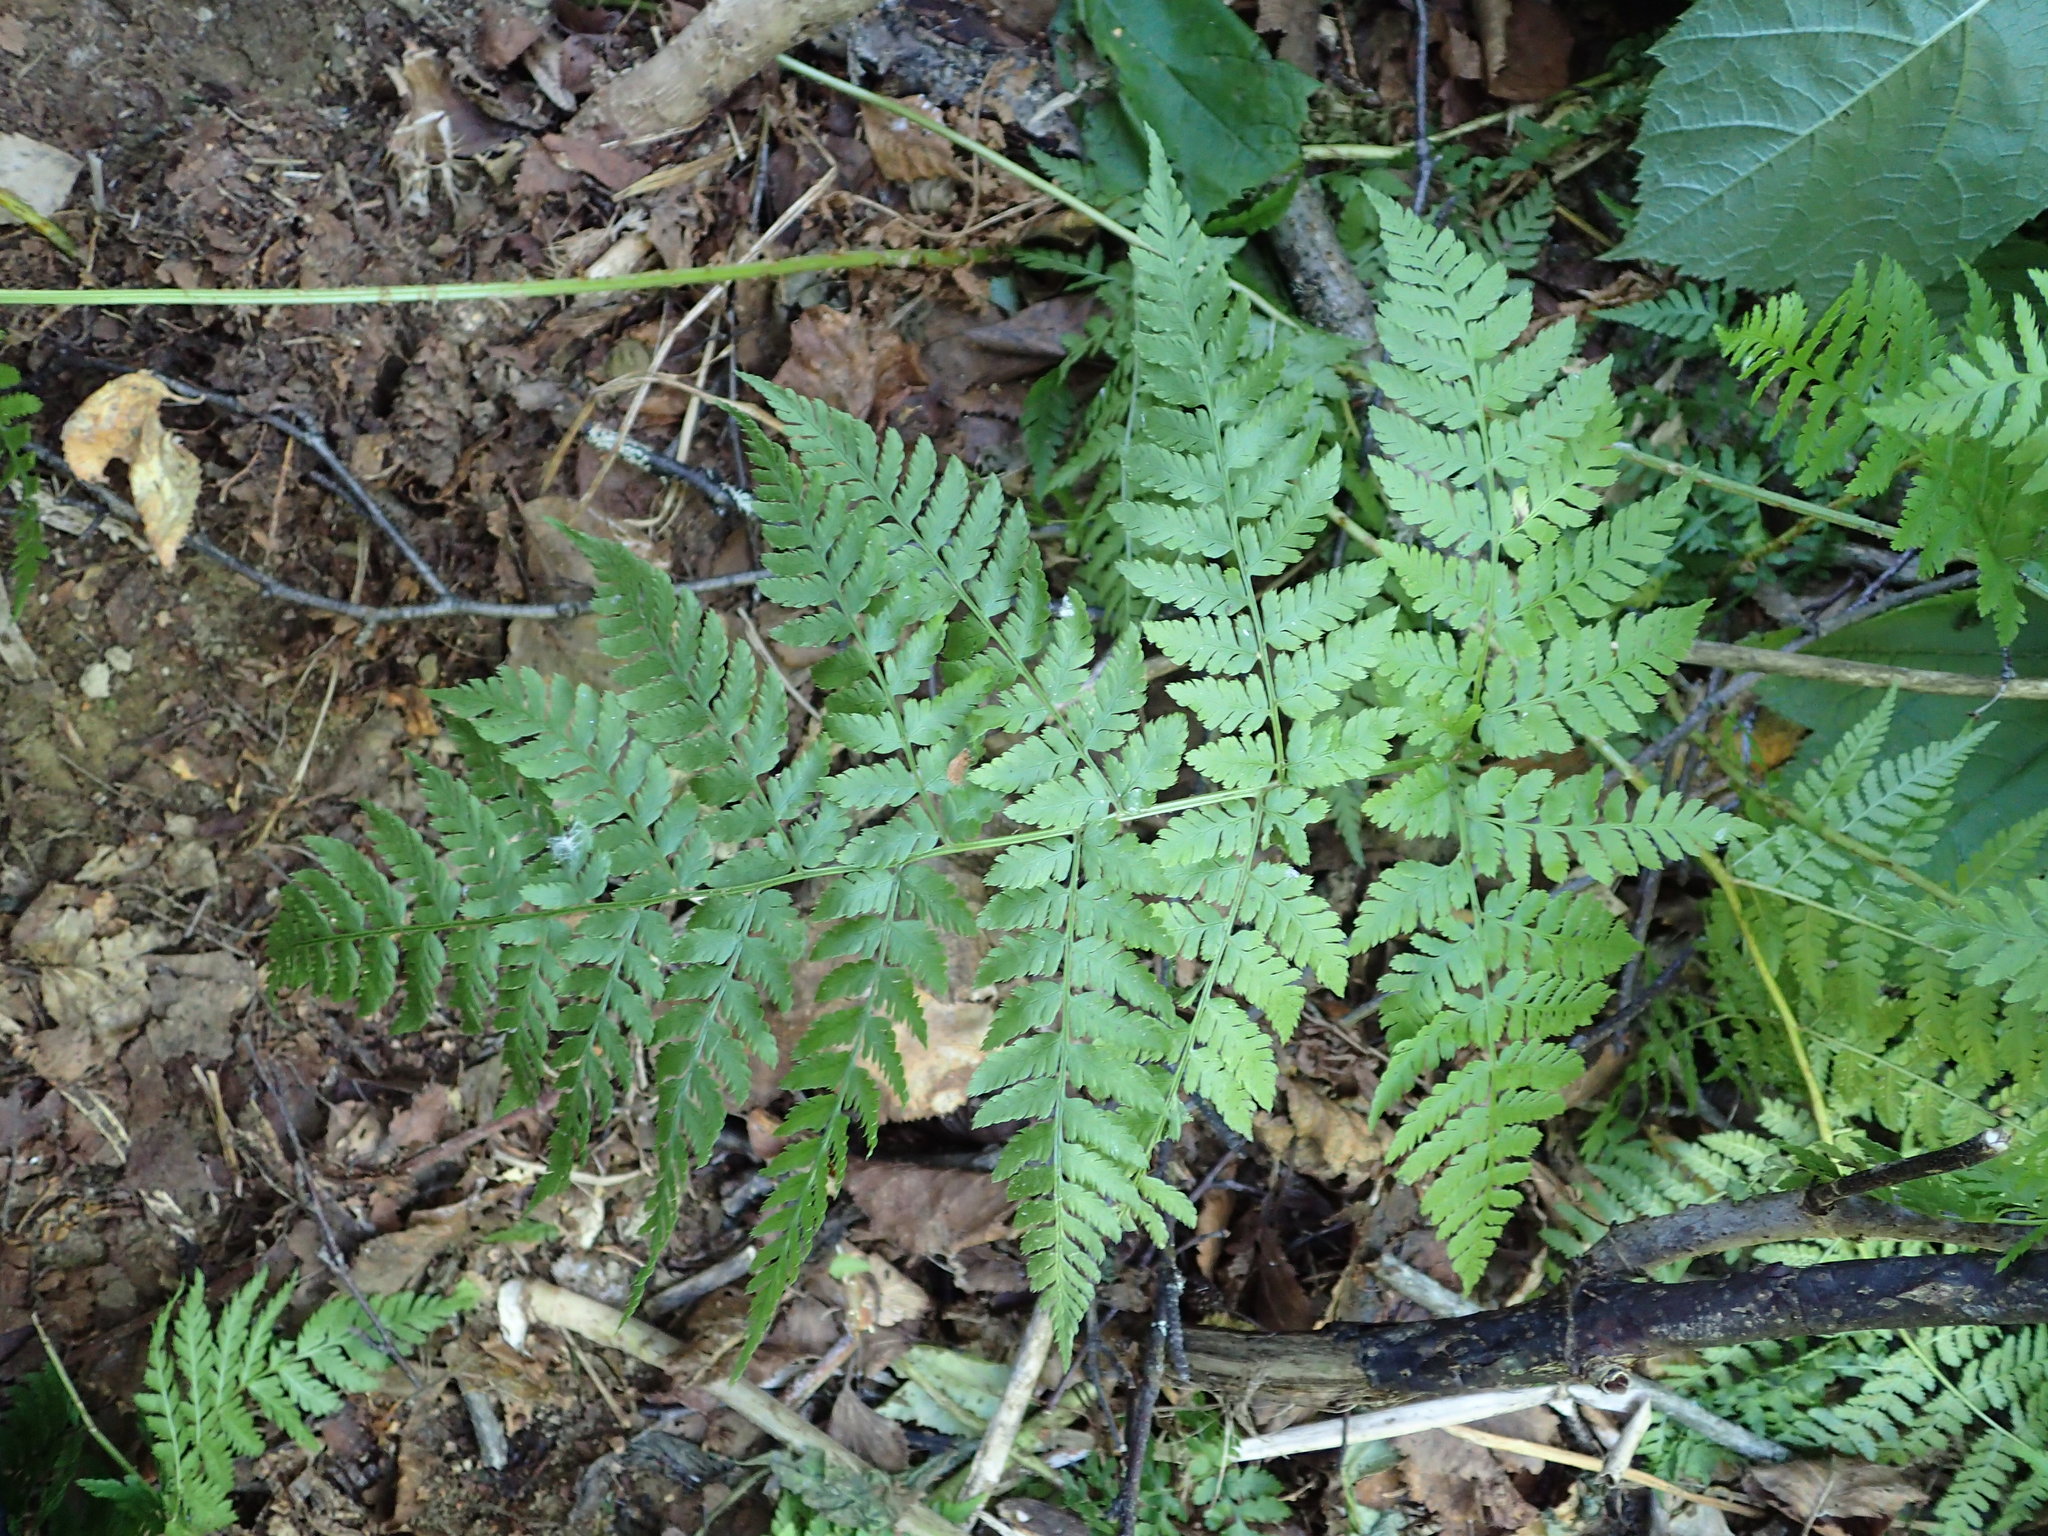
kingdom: Plantae
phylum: Tracheophyta
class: Polypodiopsida
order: Polypodiales
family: Dryopteridaceae
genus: Dryopteris
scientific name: Dryopteris expansa
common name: Northern buckler fern
